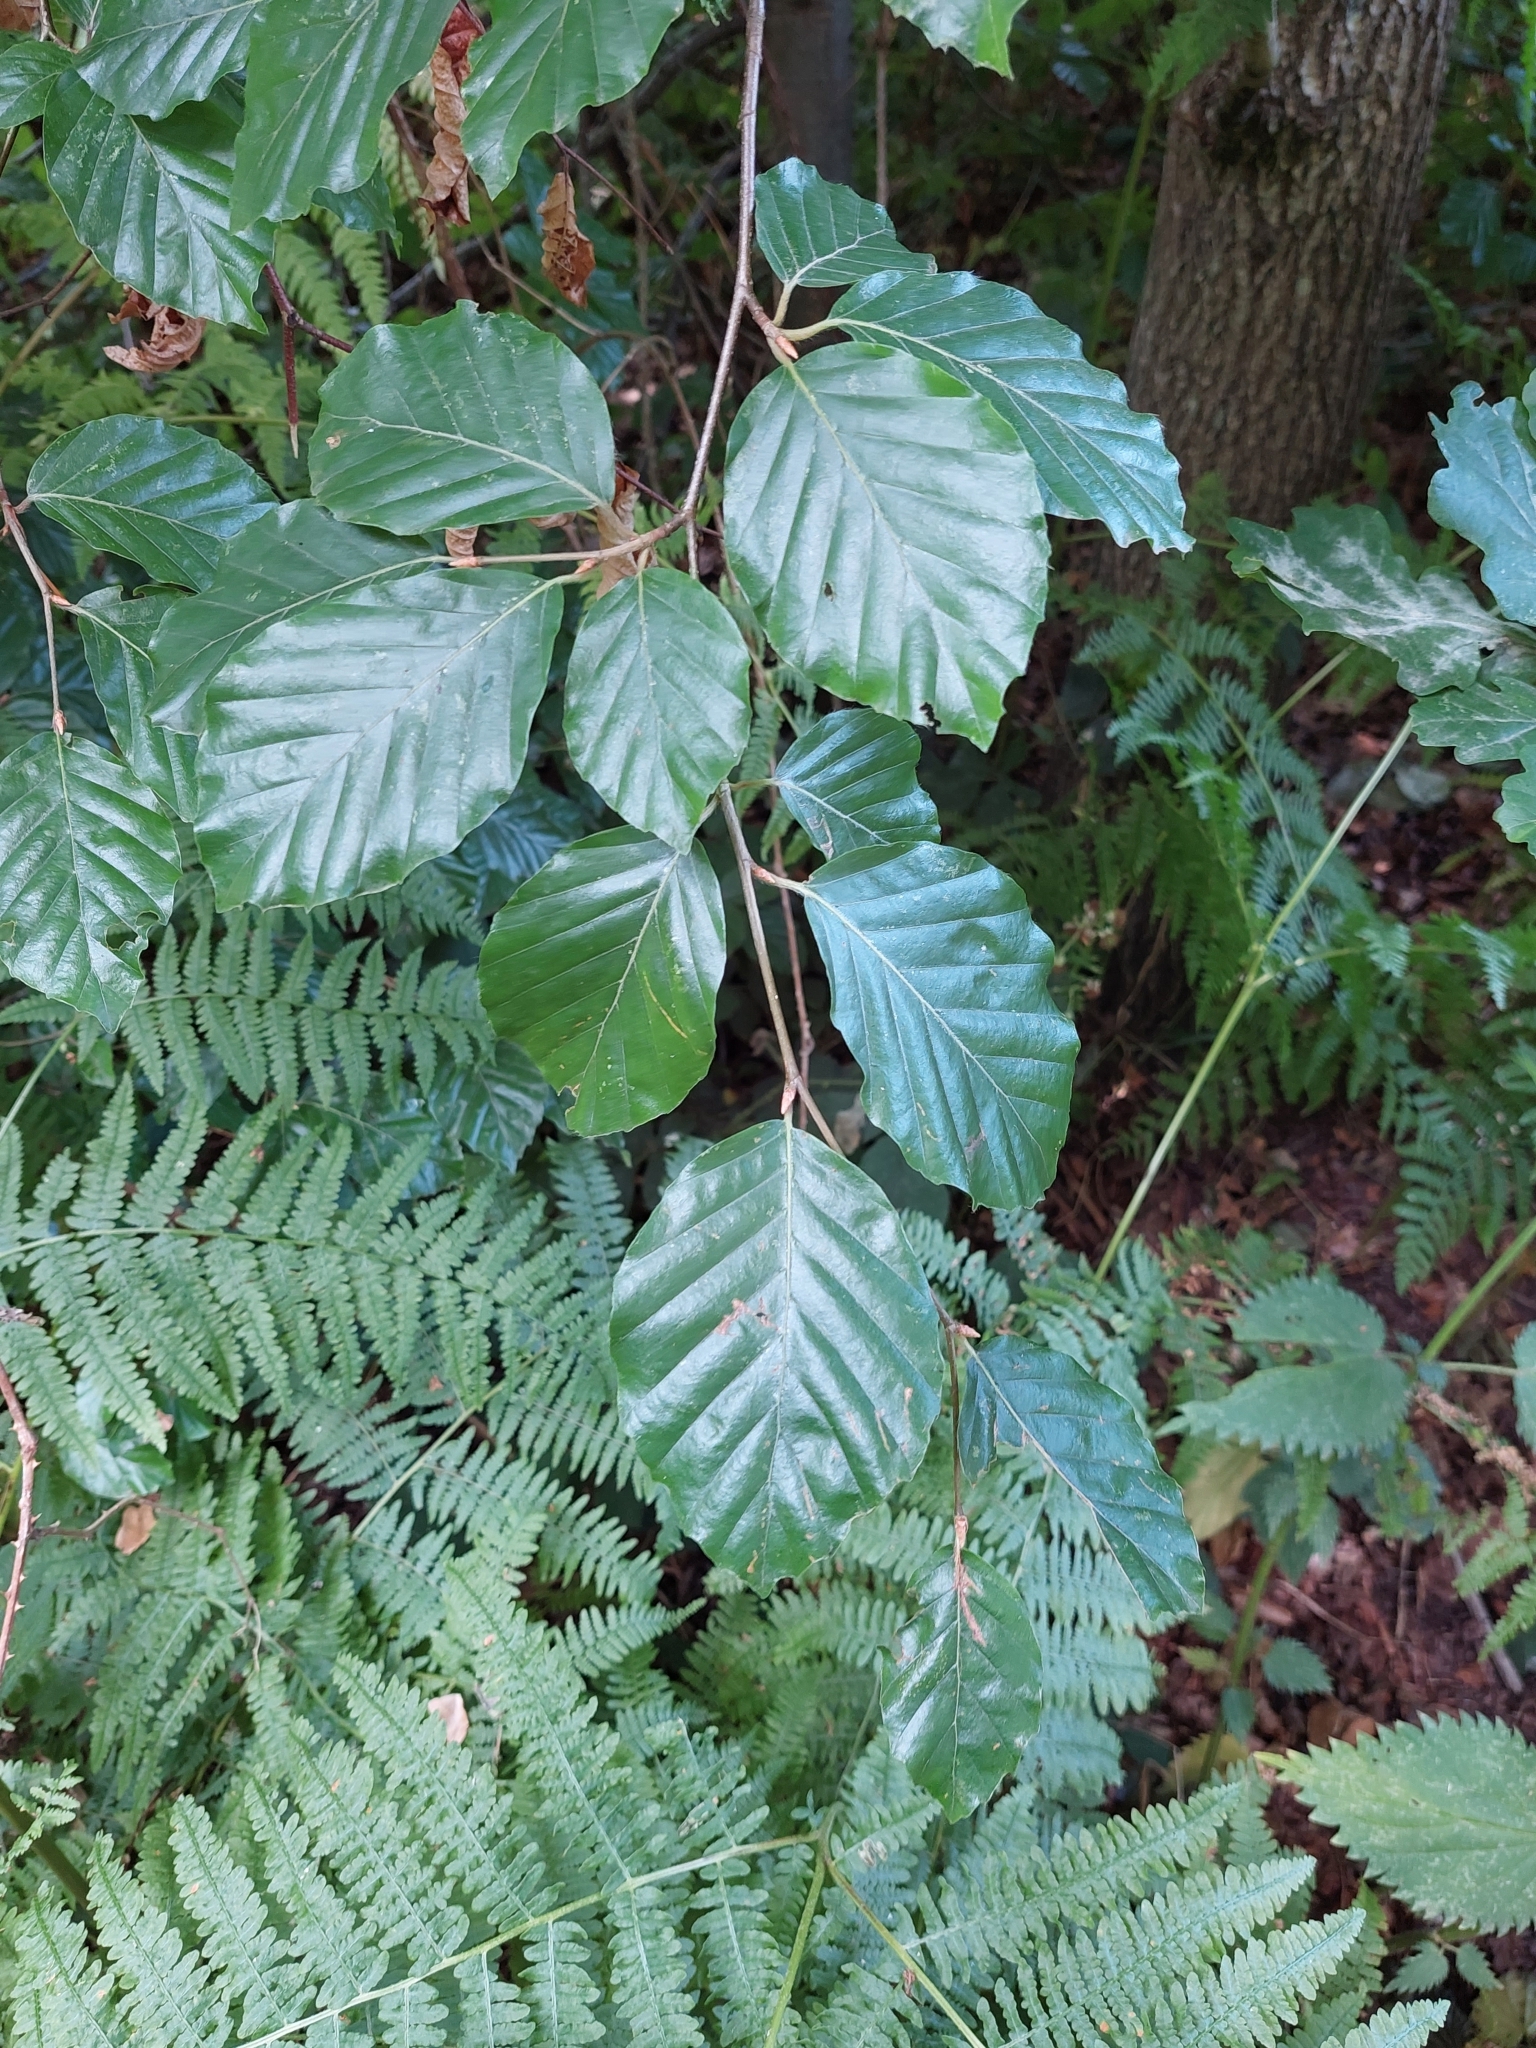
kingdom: Plantae
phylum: Tracheophyta
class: Magnoliopsida
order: Fagales
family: Fagaceae
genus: Fagus
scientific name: Fagus sylvatica
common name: Beech
